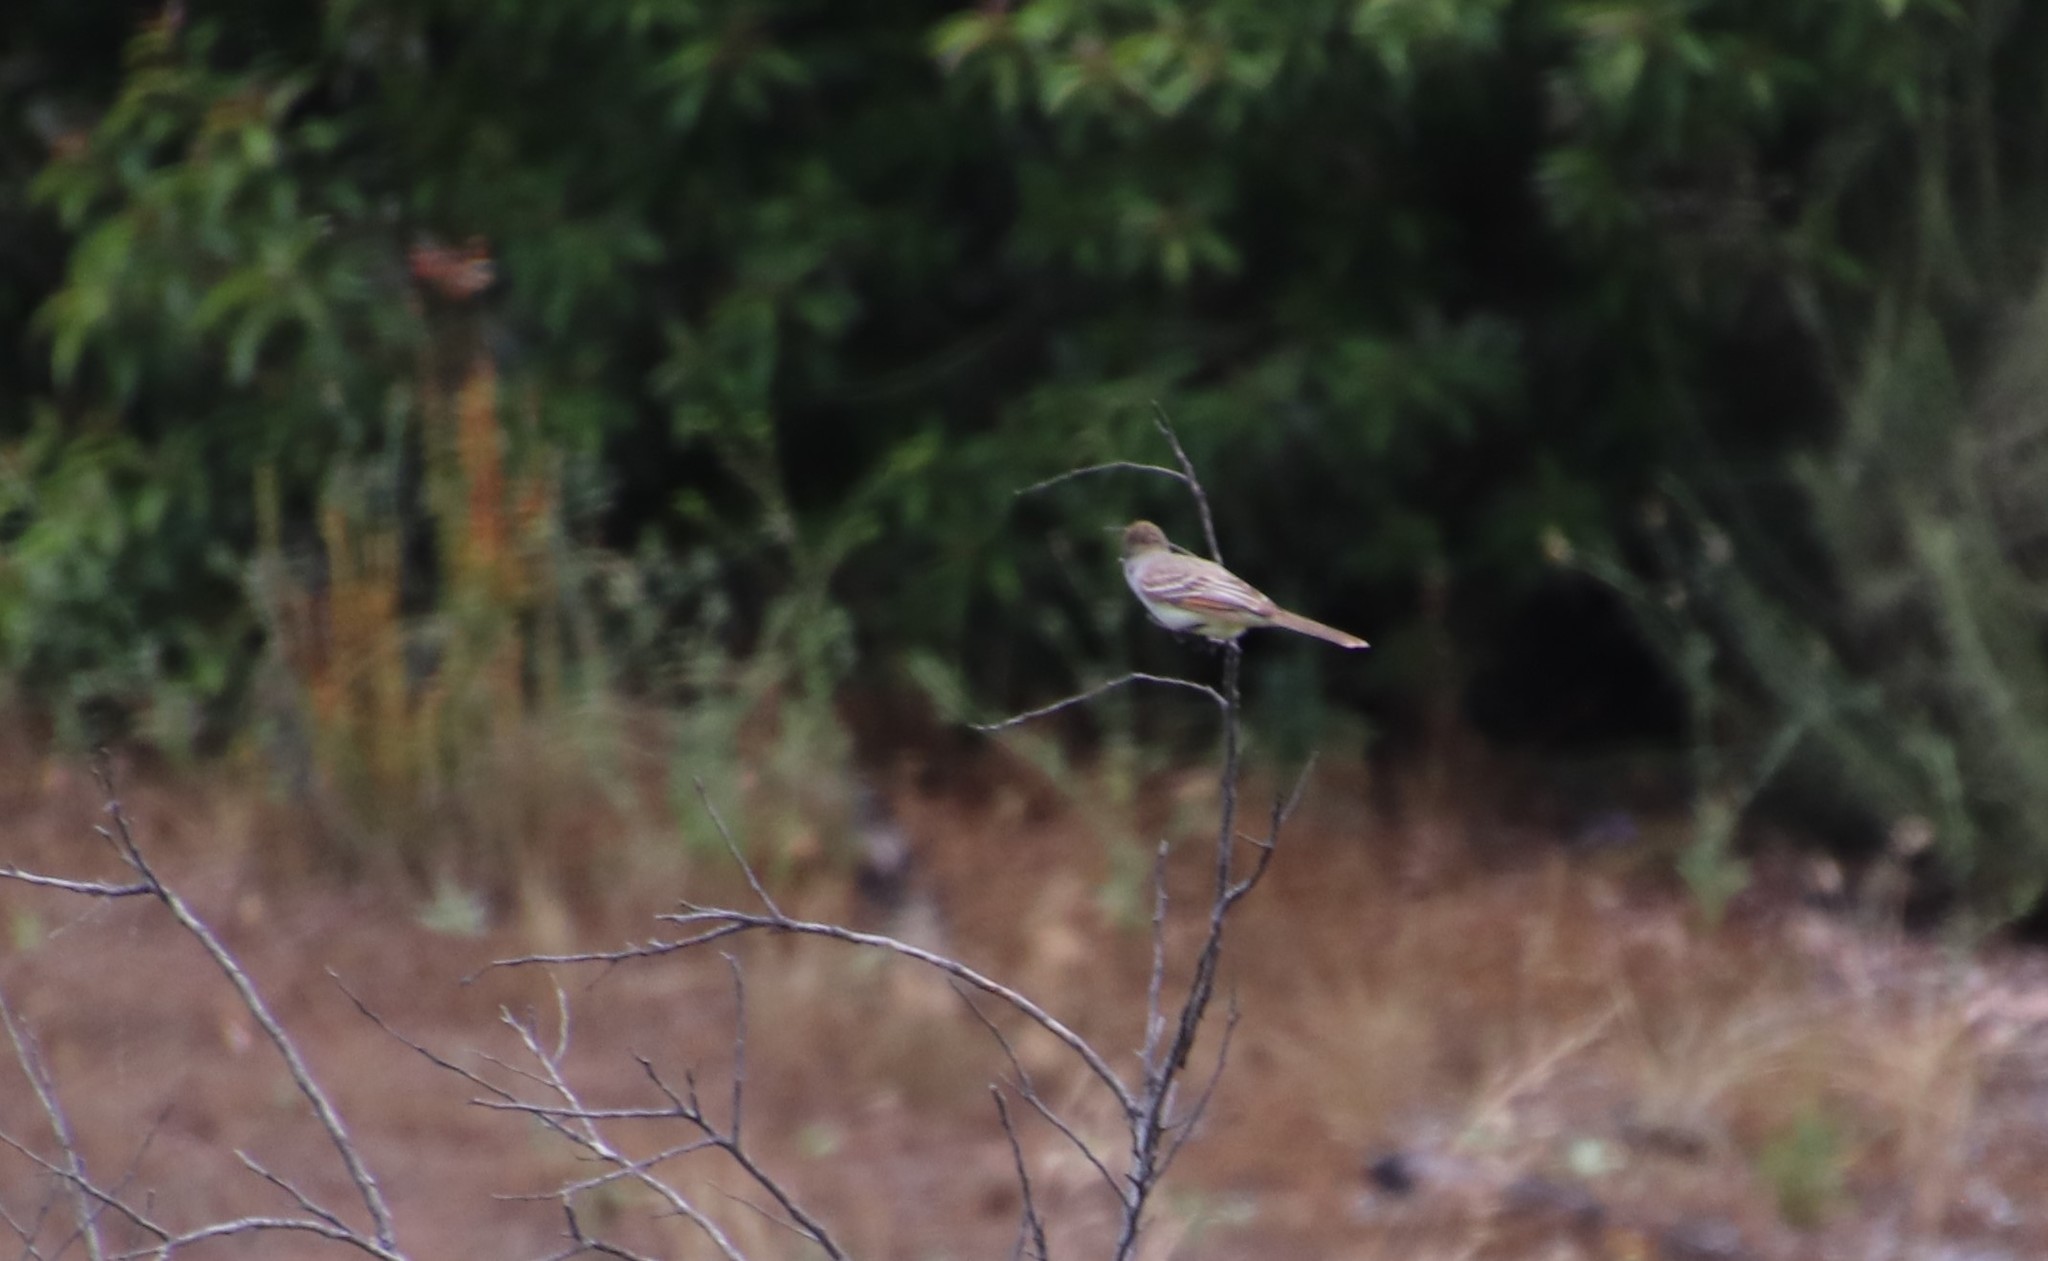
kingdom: Animalia
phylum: Chordata
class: Aves
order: Passeriformes
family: Tyrannidae
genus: Myiarchus
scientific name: Myiarchus cinerascens
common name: Ash-throated flycatcher
